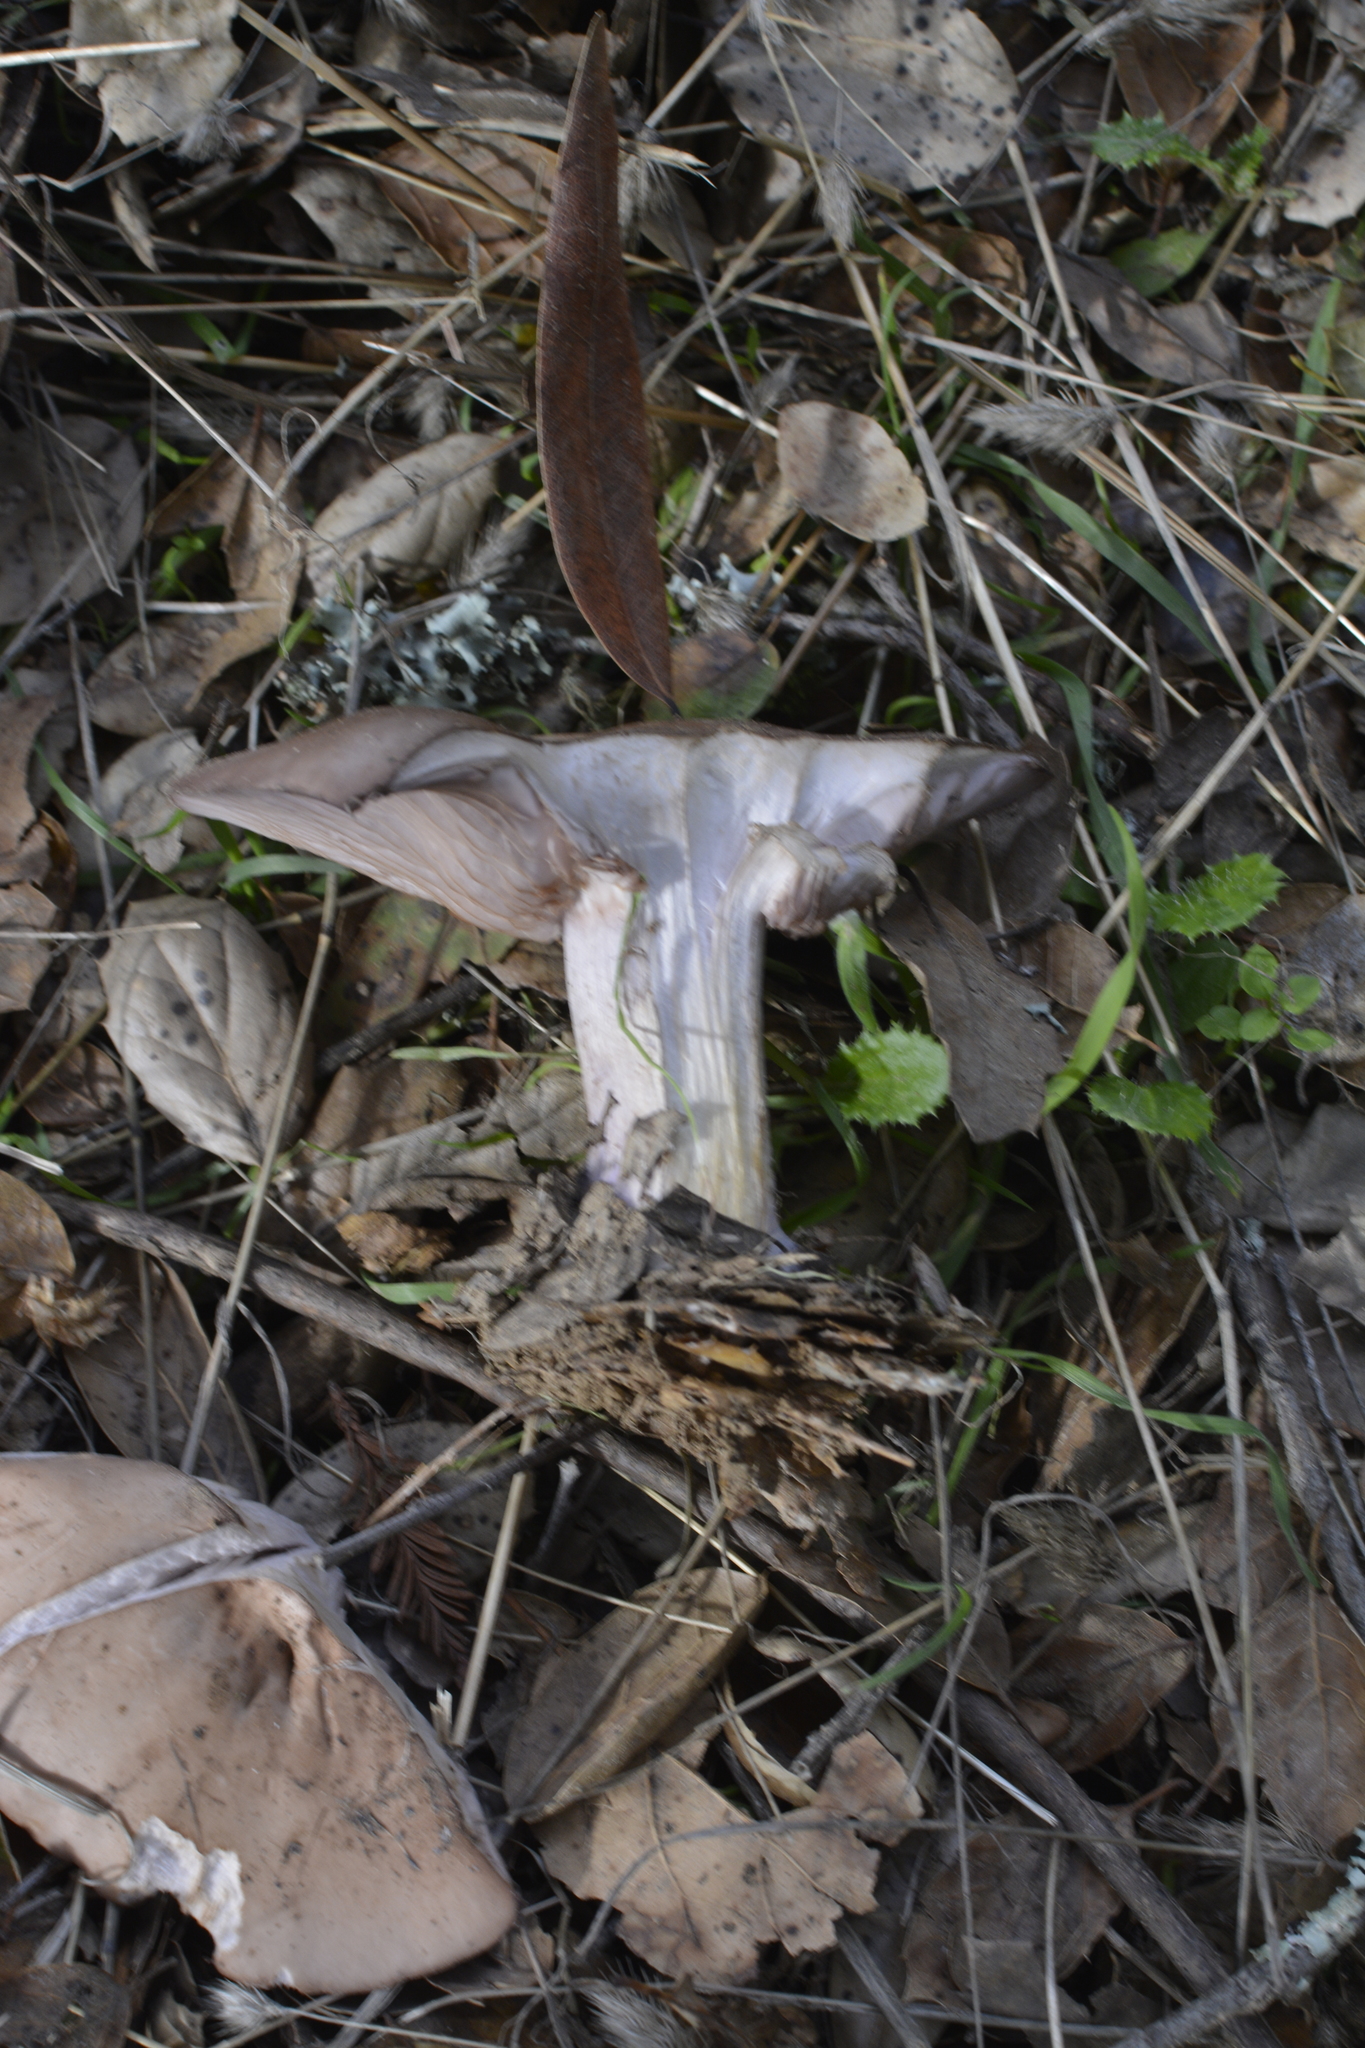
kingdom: Fungi
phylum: Basidiomycota
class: Agaricomycetes
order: Agaricales
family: Tricholomataceae
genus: Collybia
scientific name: Collybia
